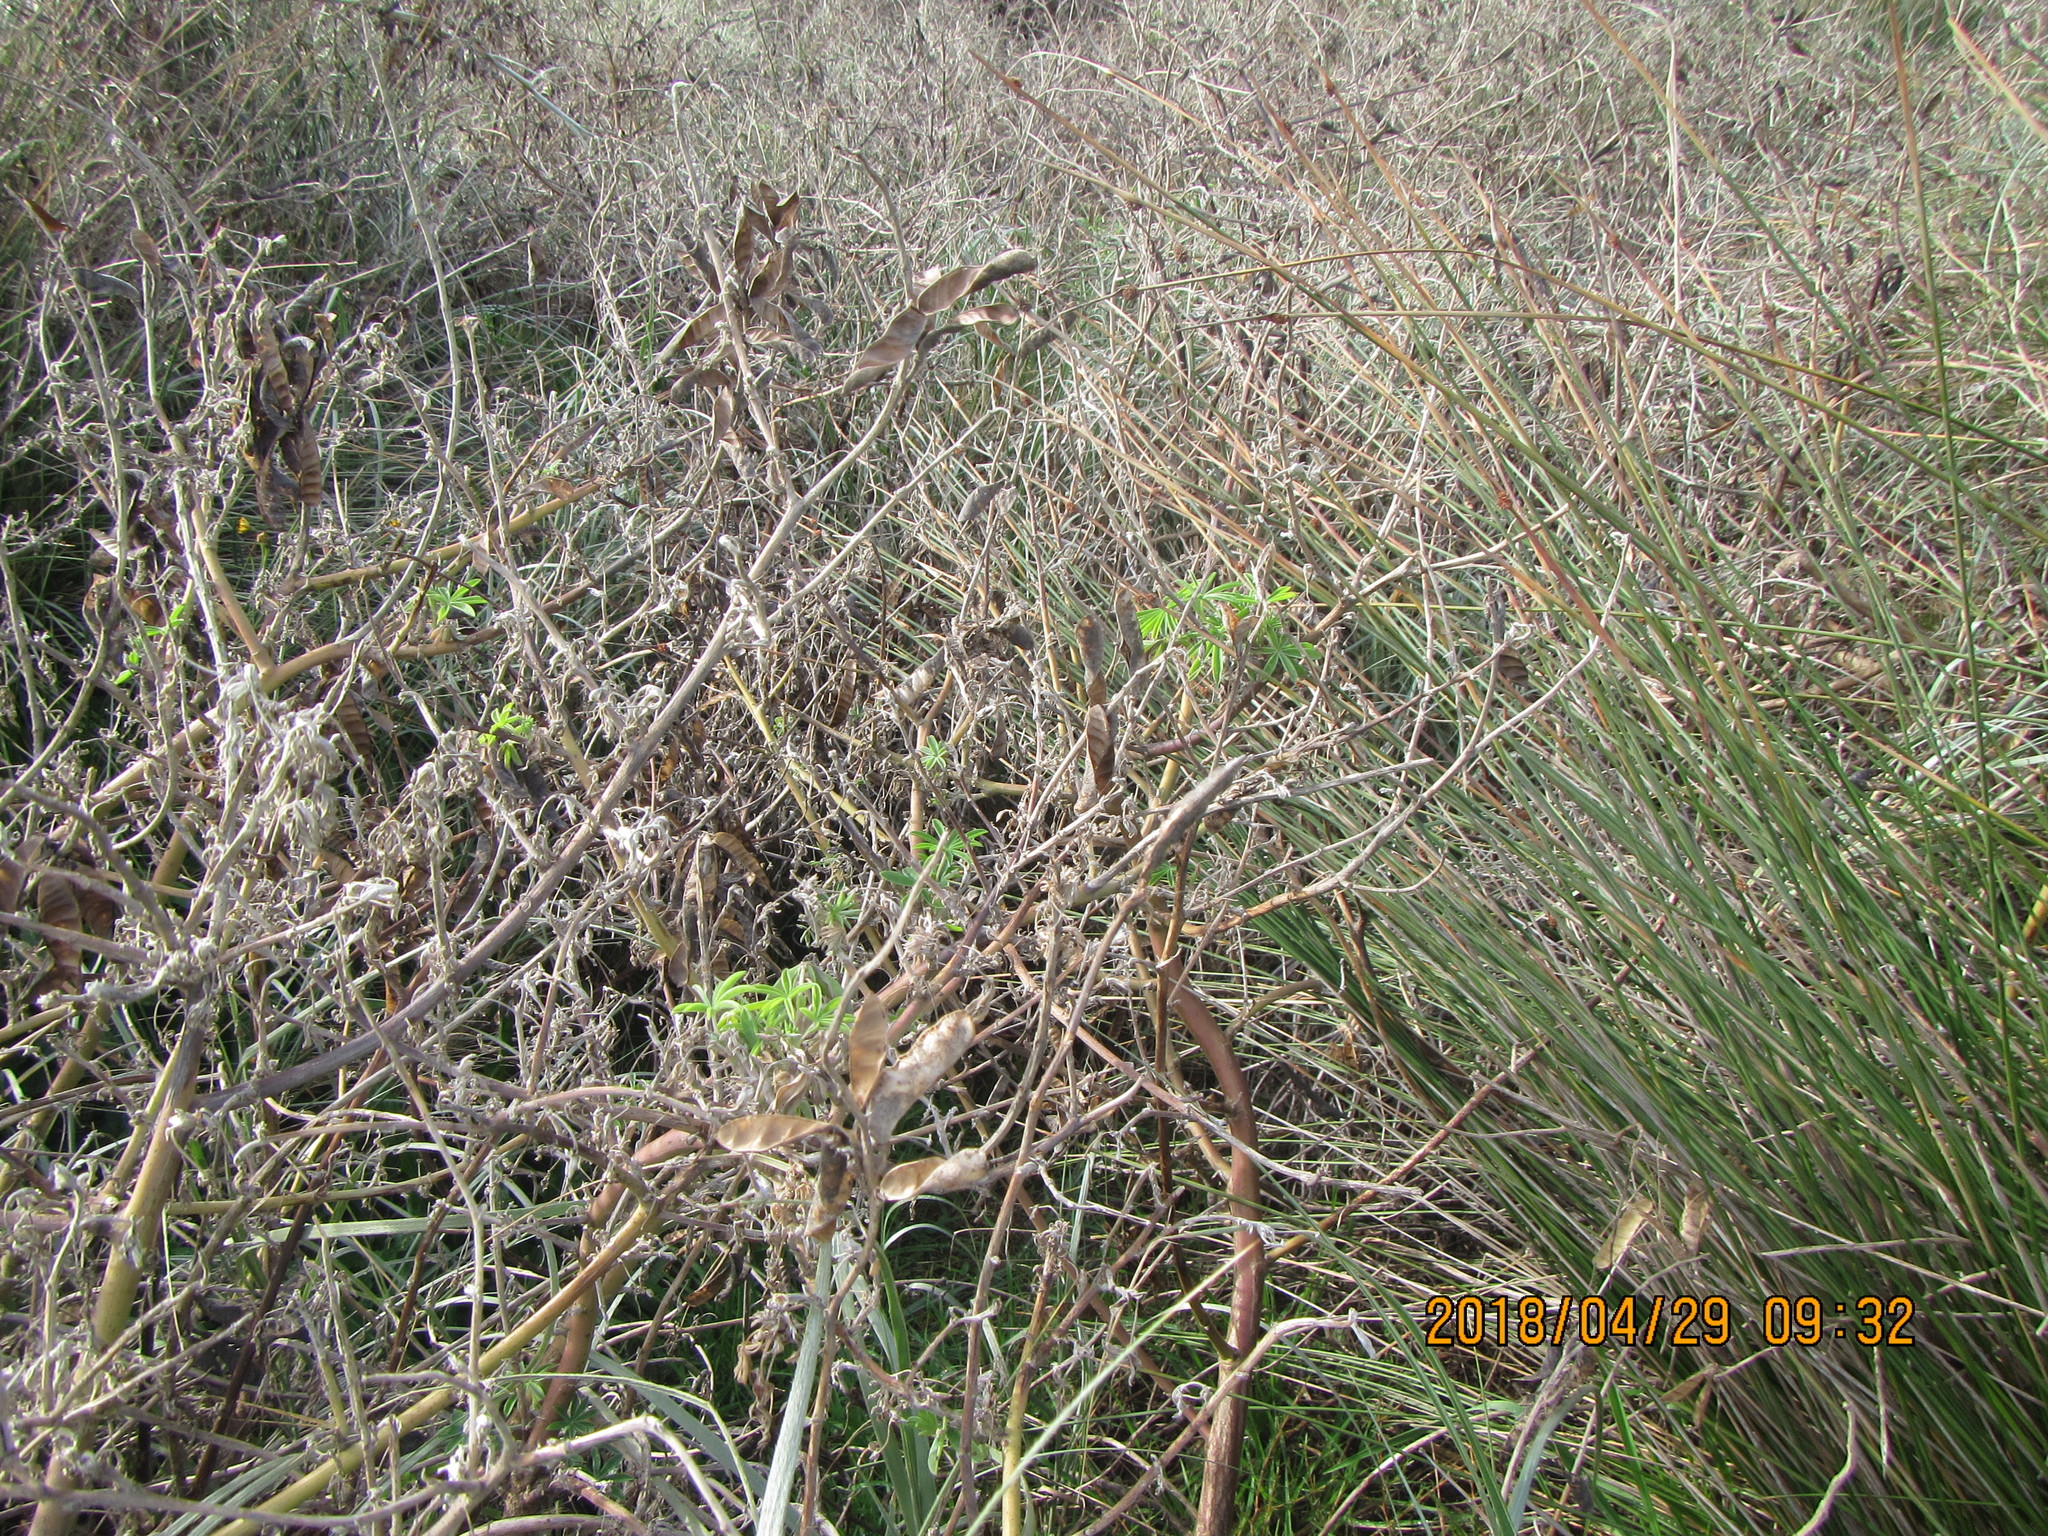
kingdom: Plantae
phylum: Tracheophyta
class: Magnoliopsida
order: Fabales
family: Fabaceae
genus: Lupinus
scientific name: Lupinus arboreus
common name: Yellow bush lupine
